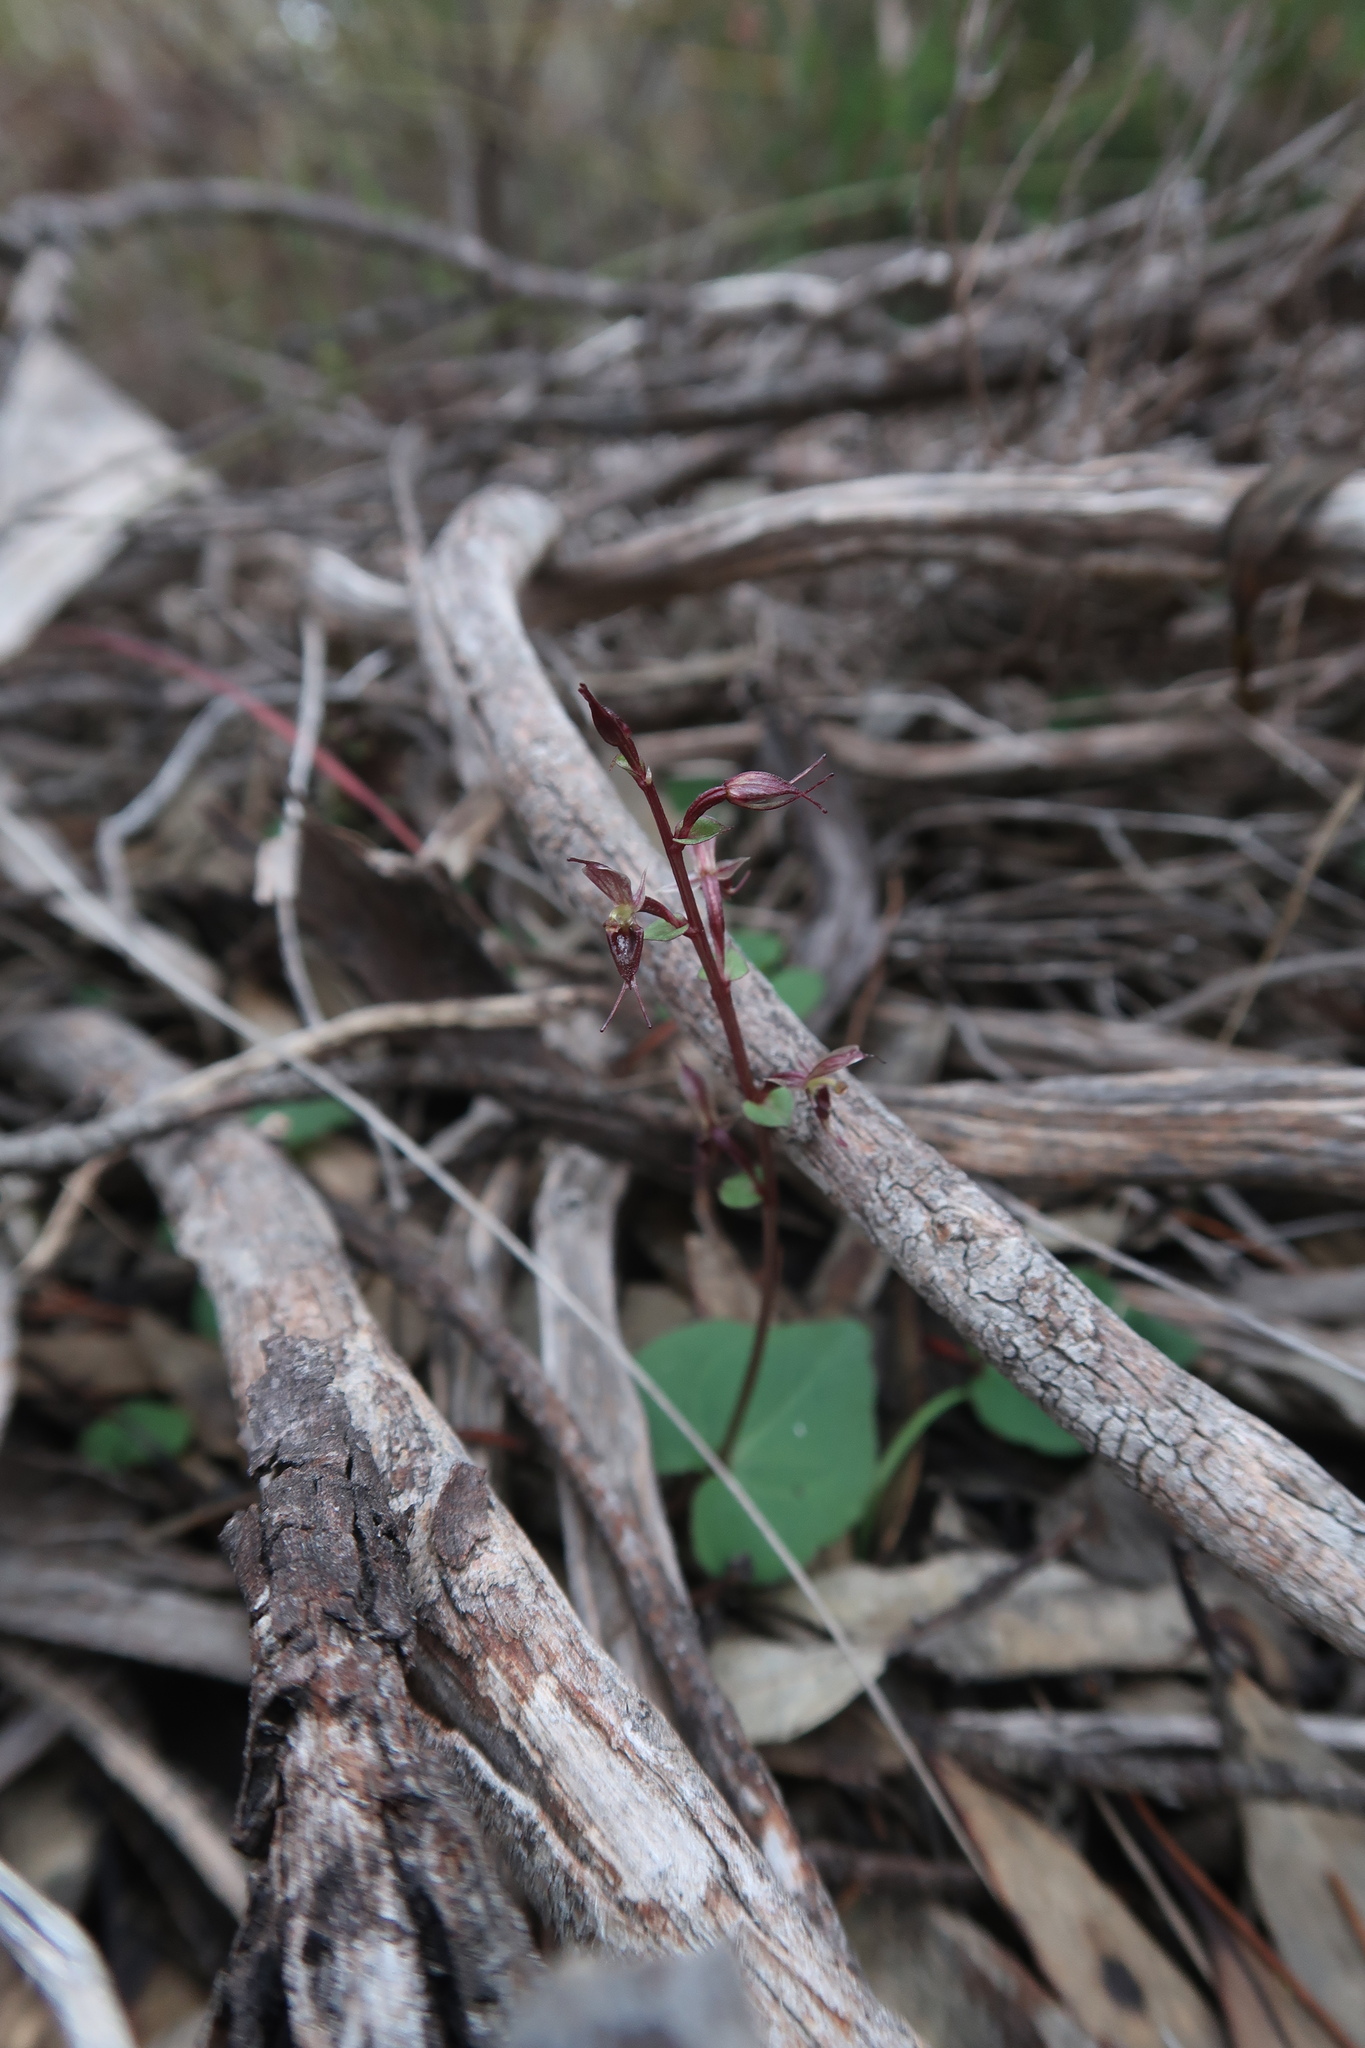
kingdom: Plantae
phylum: Tracheophyta
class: Liliopsida
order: Asparagales
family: Orchidaceae
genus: Acianthus
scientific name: Acianthus pusillus
